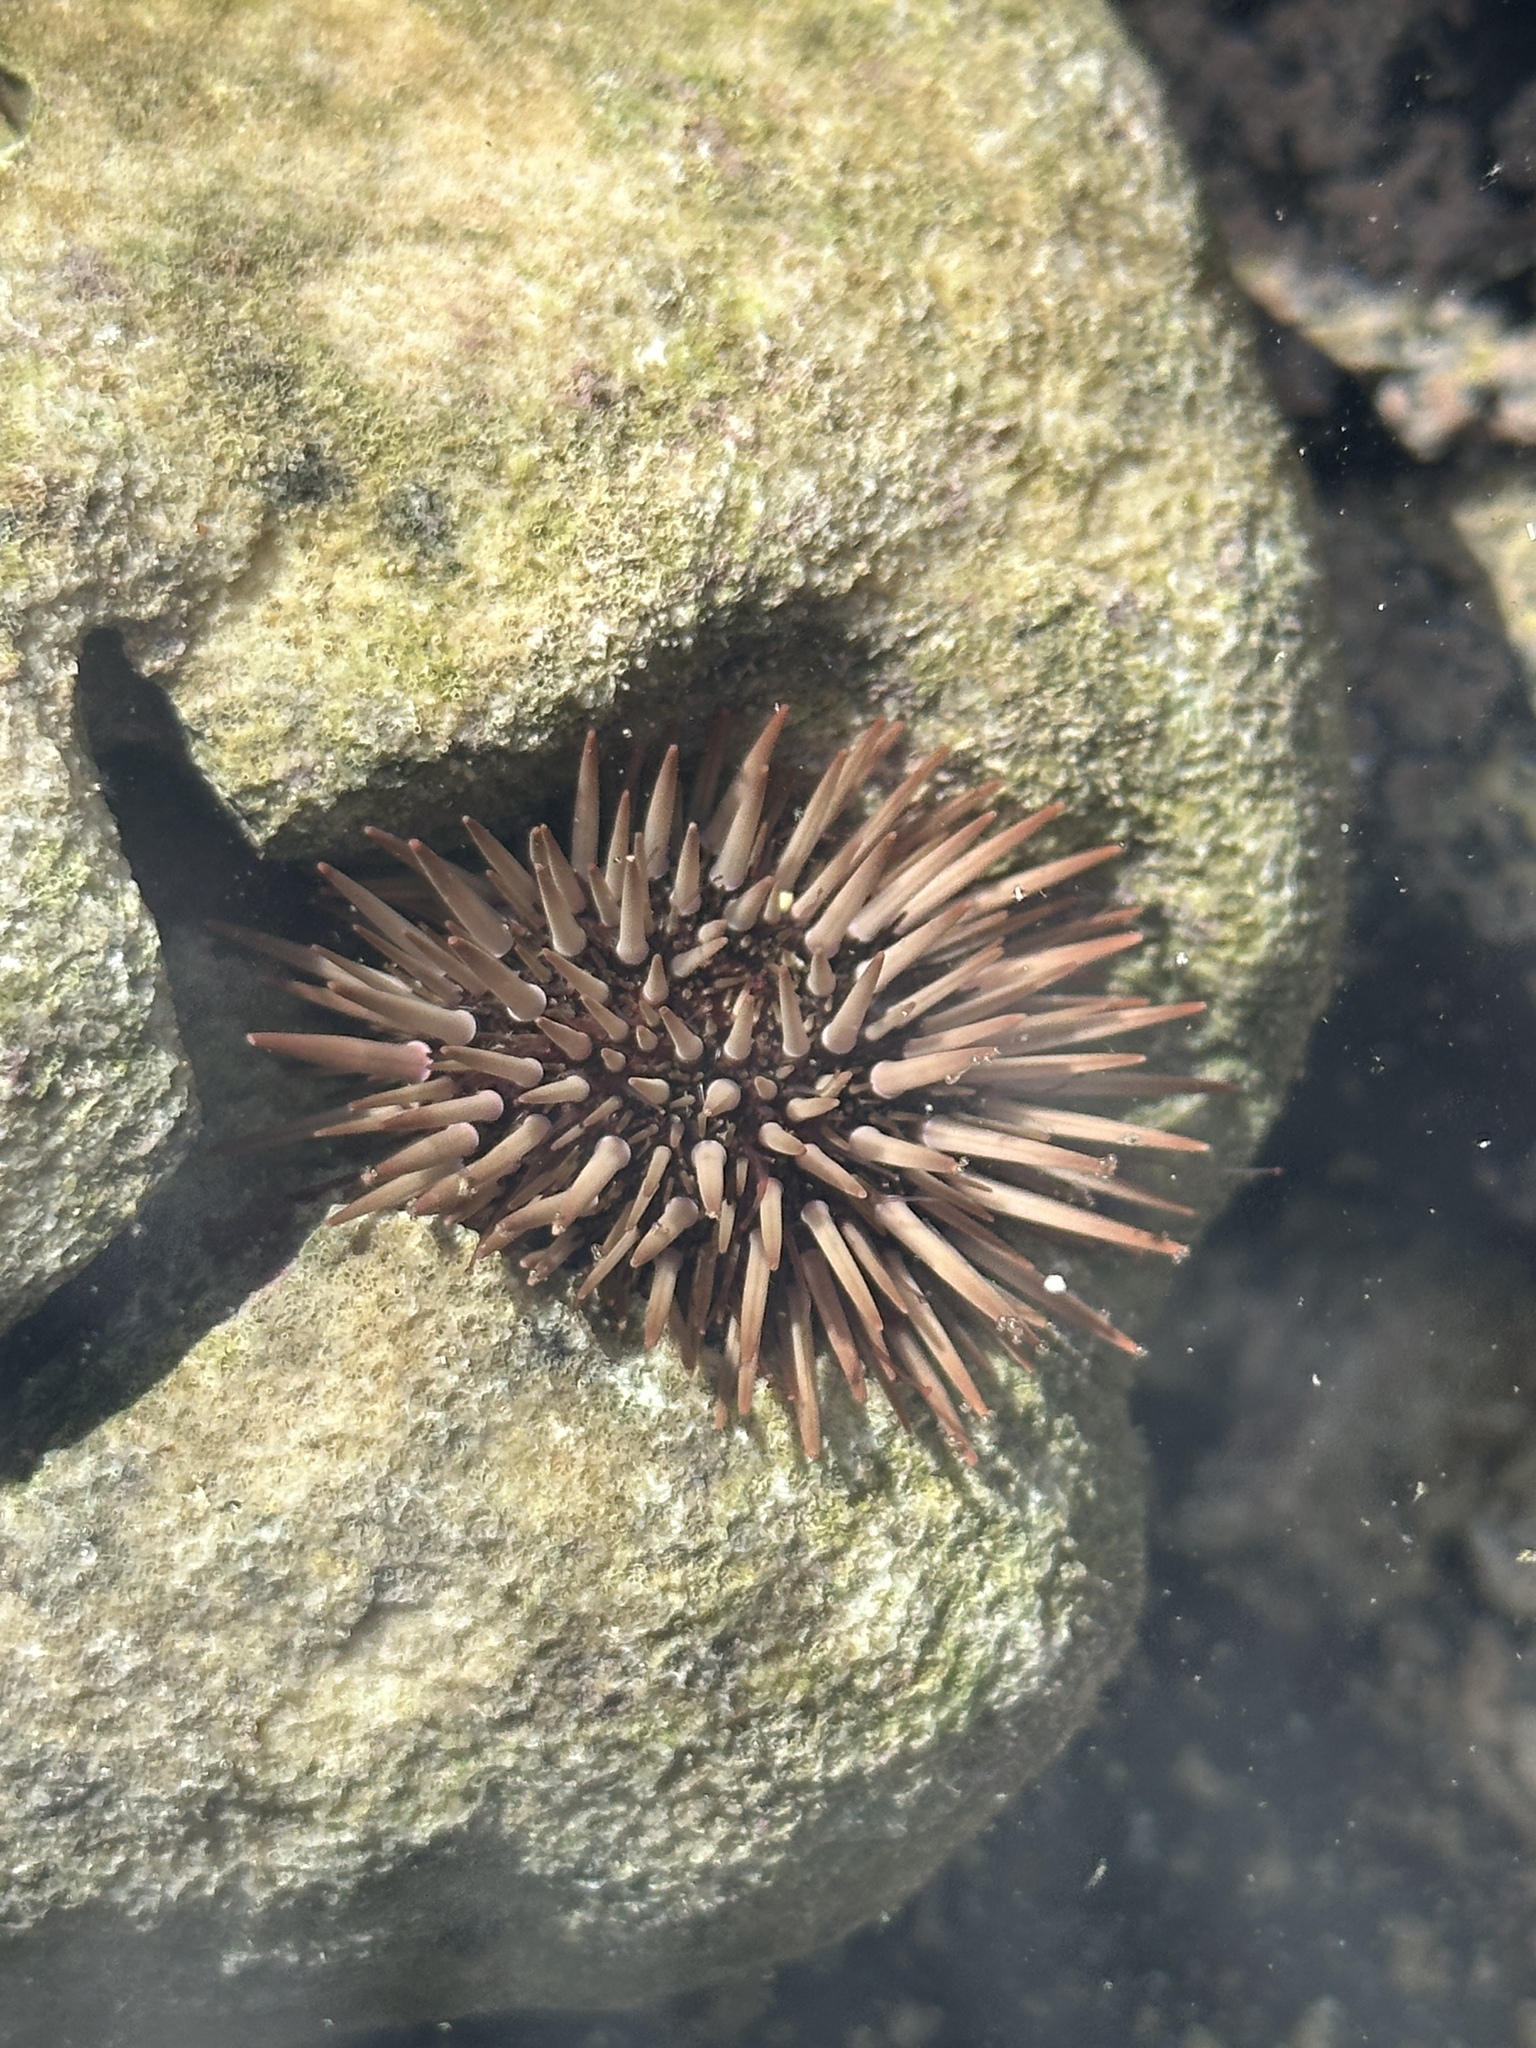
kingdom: Animalia
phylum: Echinodermata
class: Echinoidea
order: Camarodonta
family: Echinometridae
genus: Echinometra
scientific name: Echinometra mathaei
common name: Rock-boring urchin
